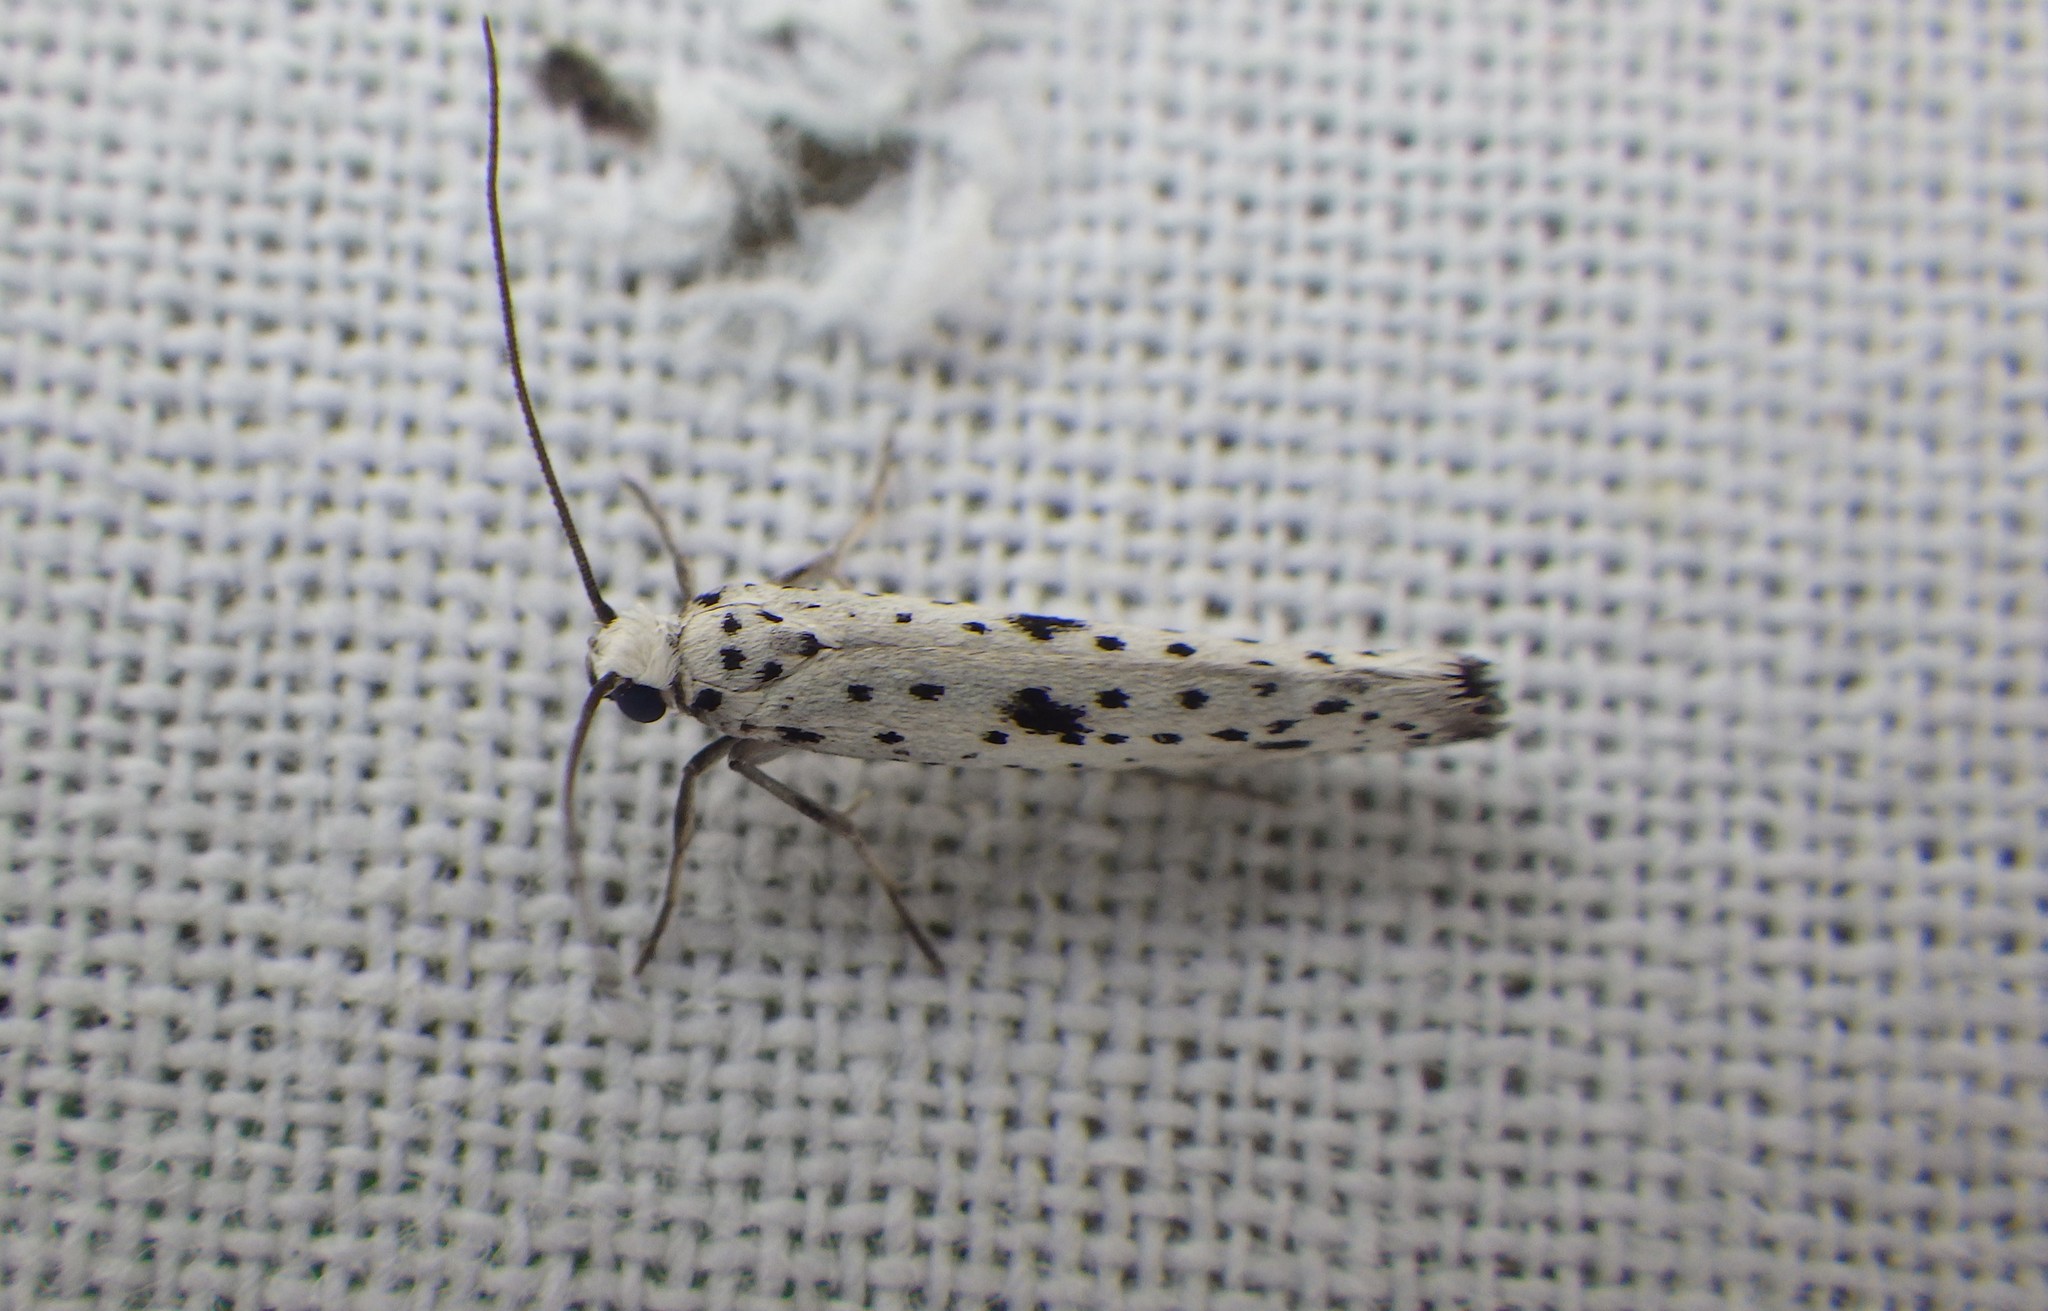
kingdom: Animalia
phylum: Arthropoda
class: Insecta
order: Lepidoptera
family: Yponomeutidae
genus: Yponomeuta
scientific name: Yponomeuta plumbella
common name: Black-tipped ermine
